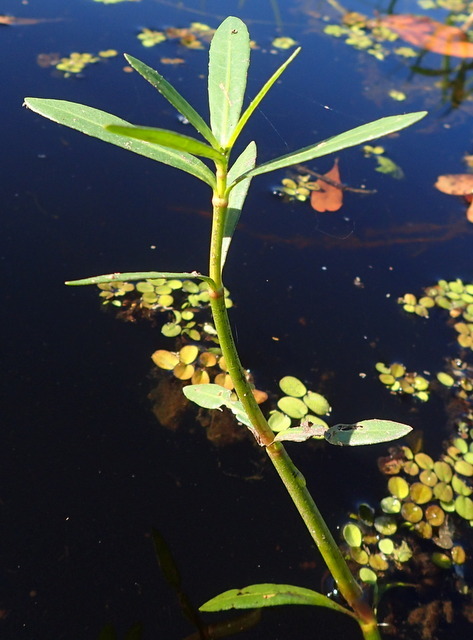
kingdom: Plantae
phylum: Tracheophyta
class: Magnoliopsida
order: Caryophyllales
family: Amaranthaceae
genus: Alternanthera
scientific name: Alternanthera philoxeroides
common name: Alligatorweed
